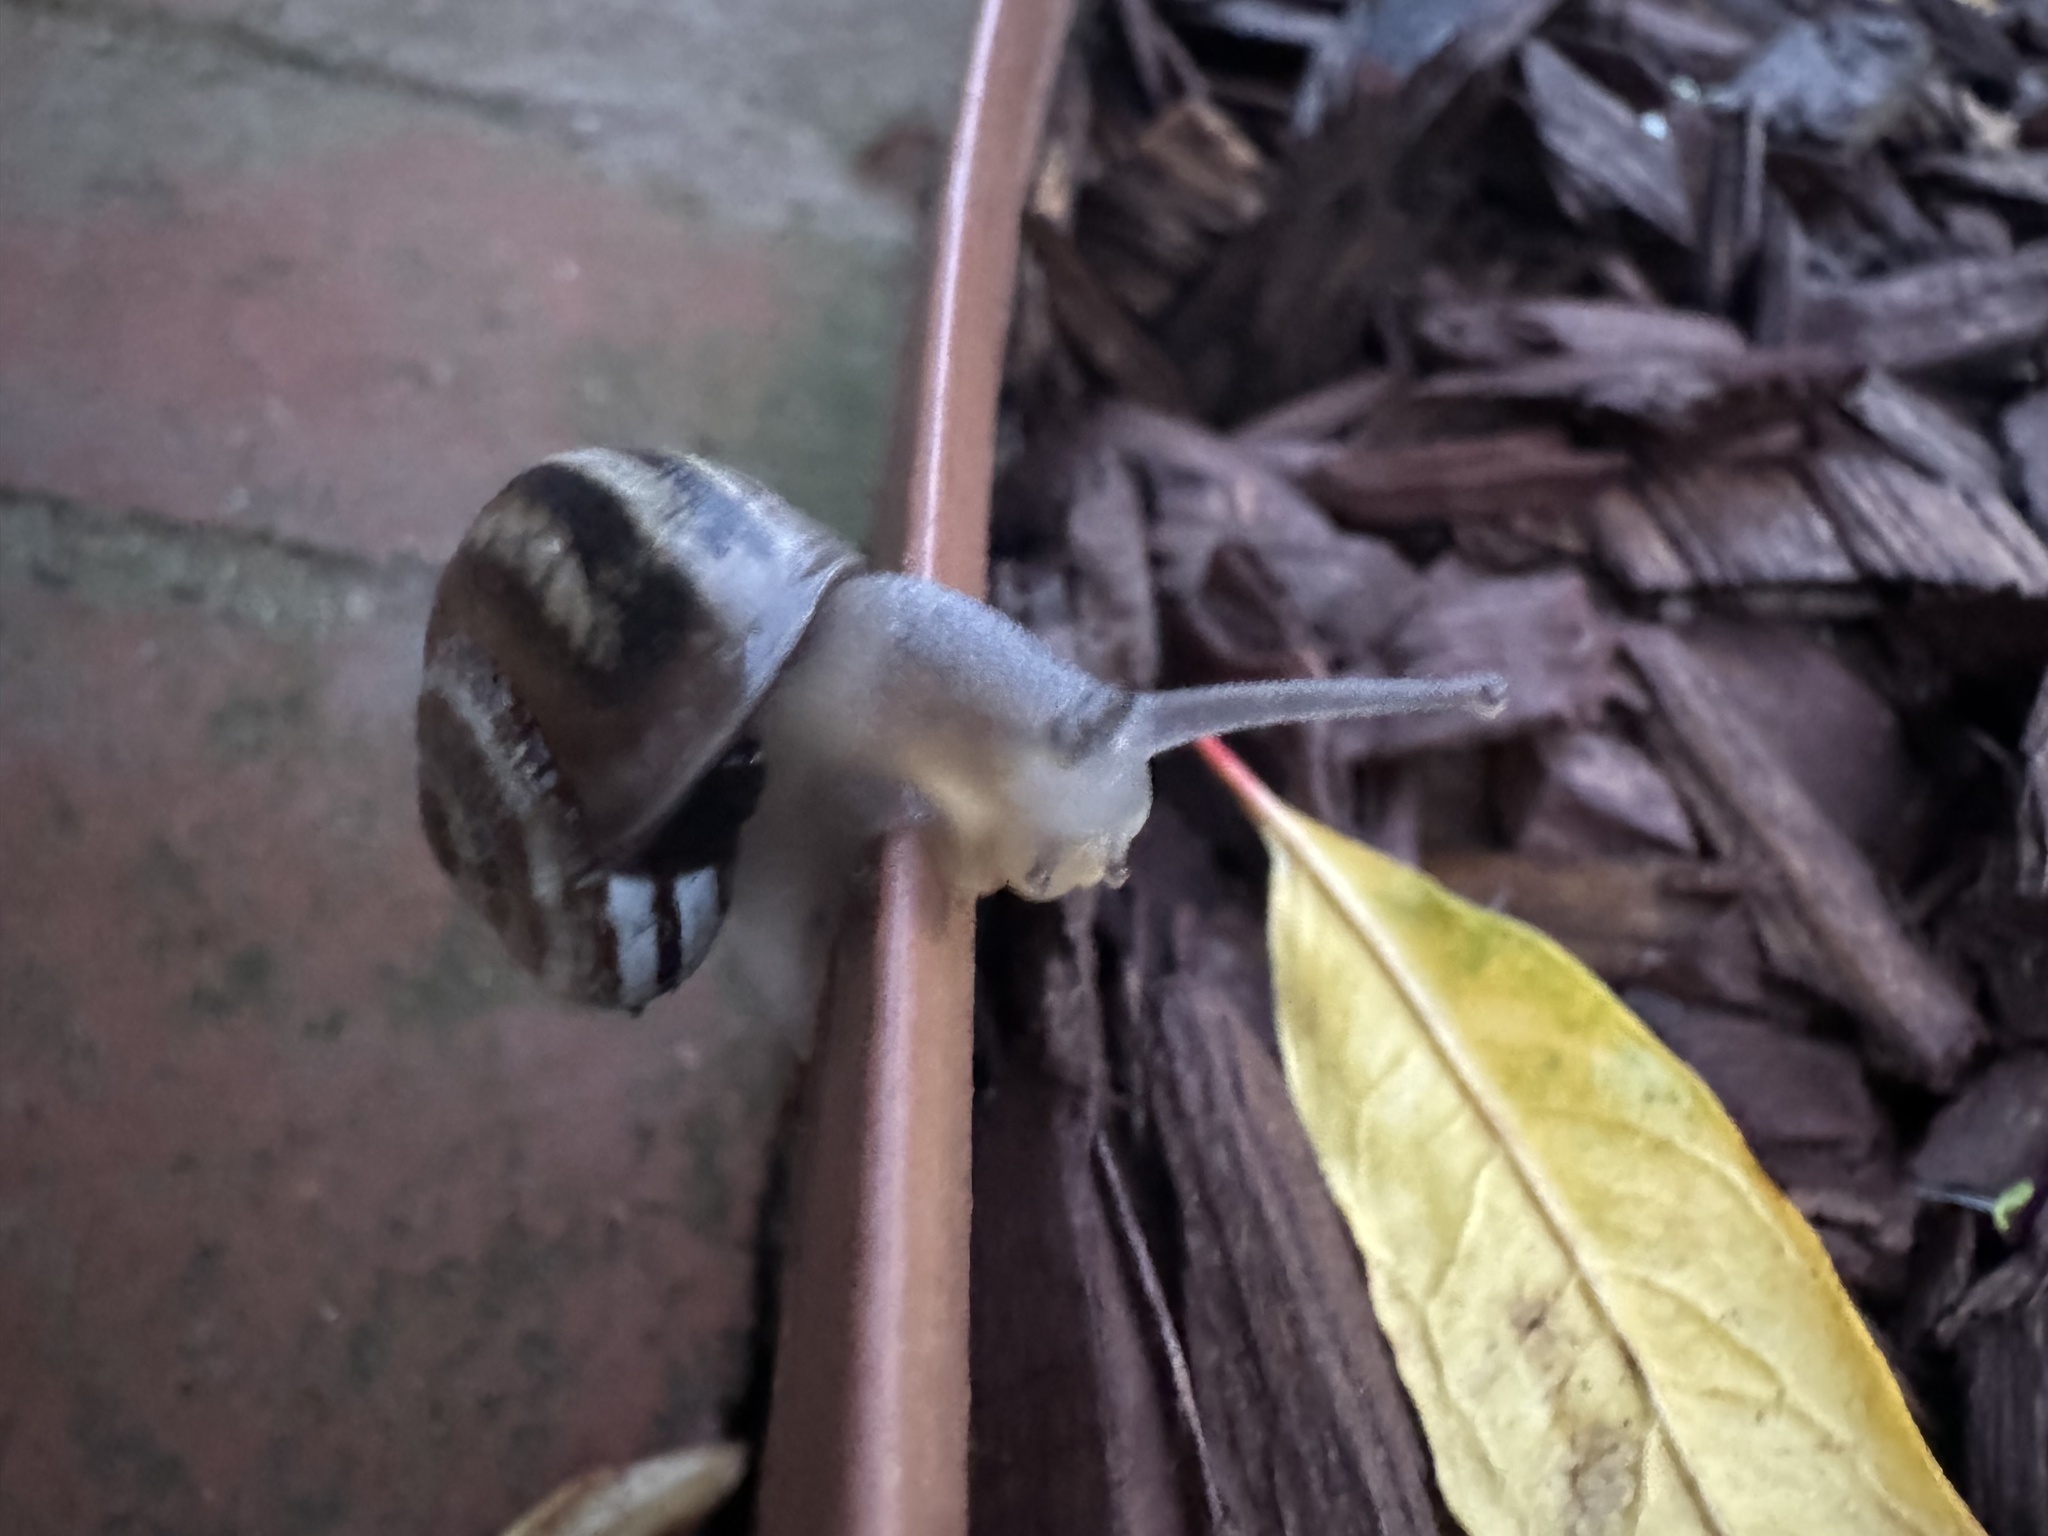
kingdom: Animalia
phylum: Mollusca
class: Gastropoda
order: Stylommatophora
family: Helicidae
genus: Otala
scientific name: Otala lactea
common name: Milk snail
